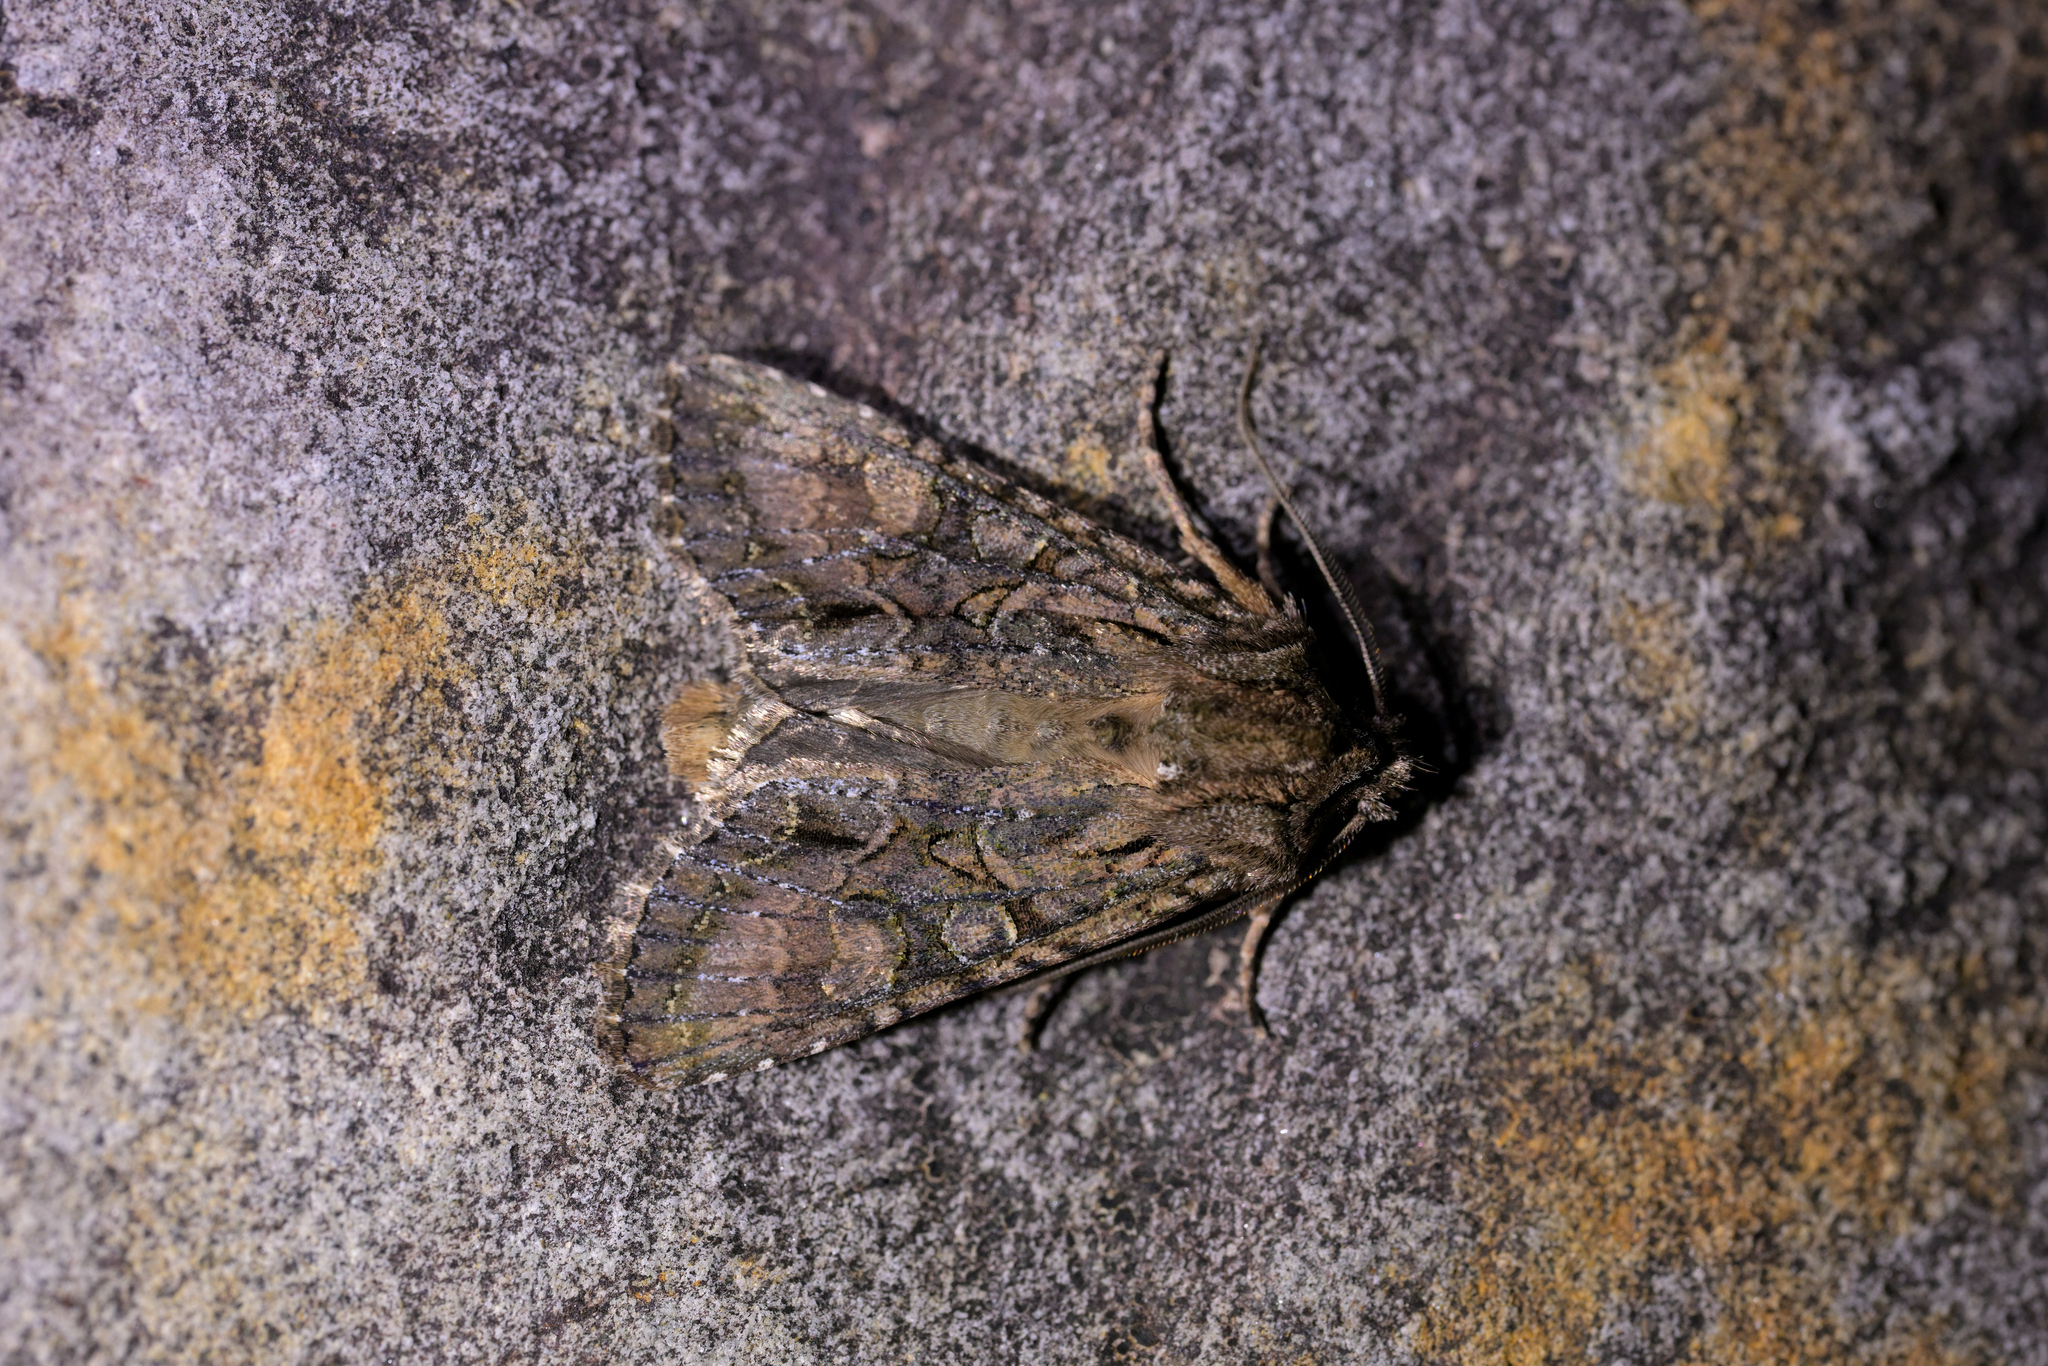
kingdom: Animalia
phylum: Arthropoda
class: Insecta
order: Lepidoptera
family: Noctuidae
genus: Ichneutica
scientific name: Ichneutica mutans
